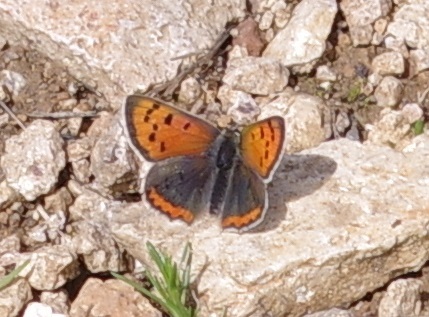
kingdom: Animalia
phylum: Arthropoda
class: Insecta
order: Lepidoptera
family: Lycaenidae
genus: Lycaena
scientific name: Lycaena phlaeas
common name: Small copper
